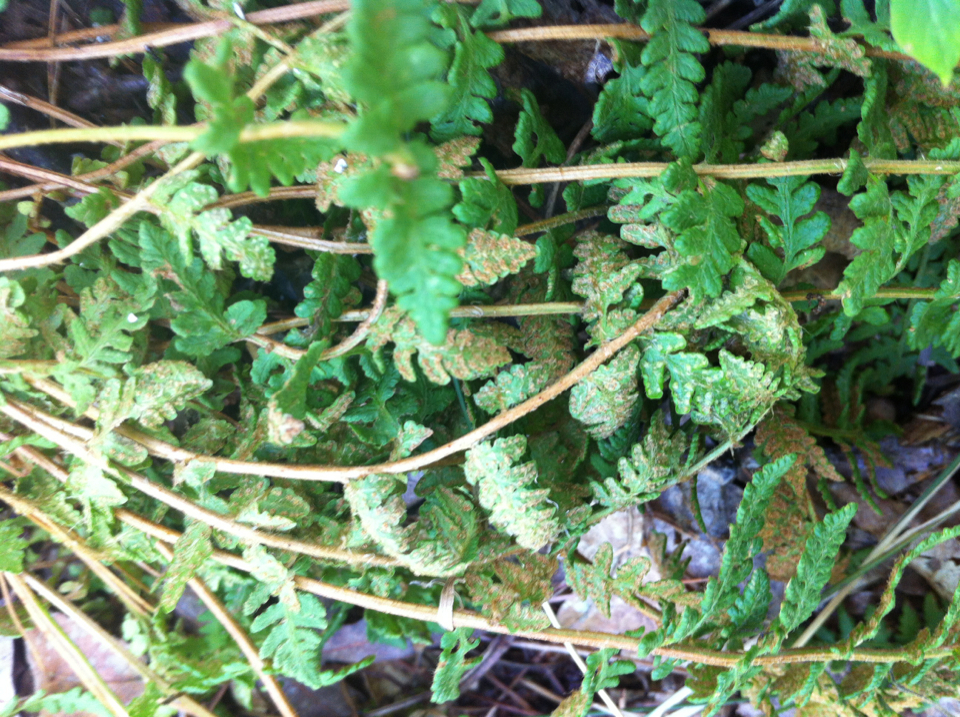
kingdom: Plantae
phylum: Tracheophyta
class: Polypodiopsida
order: Polypodiales
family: Woodsiaceae
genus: Woodsia
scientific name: Woodsia ilvensis
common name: Fragrant woodsia
